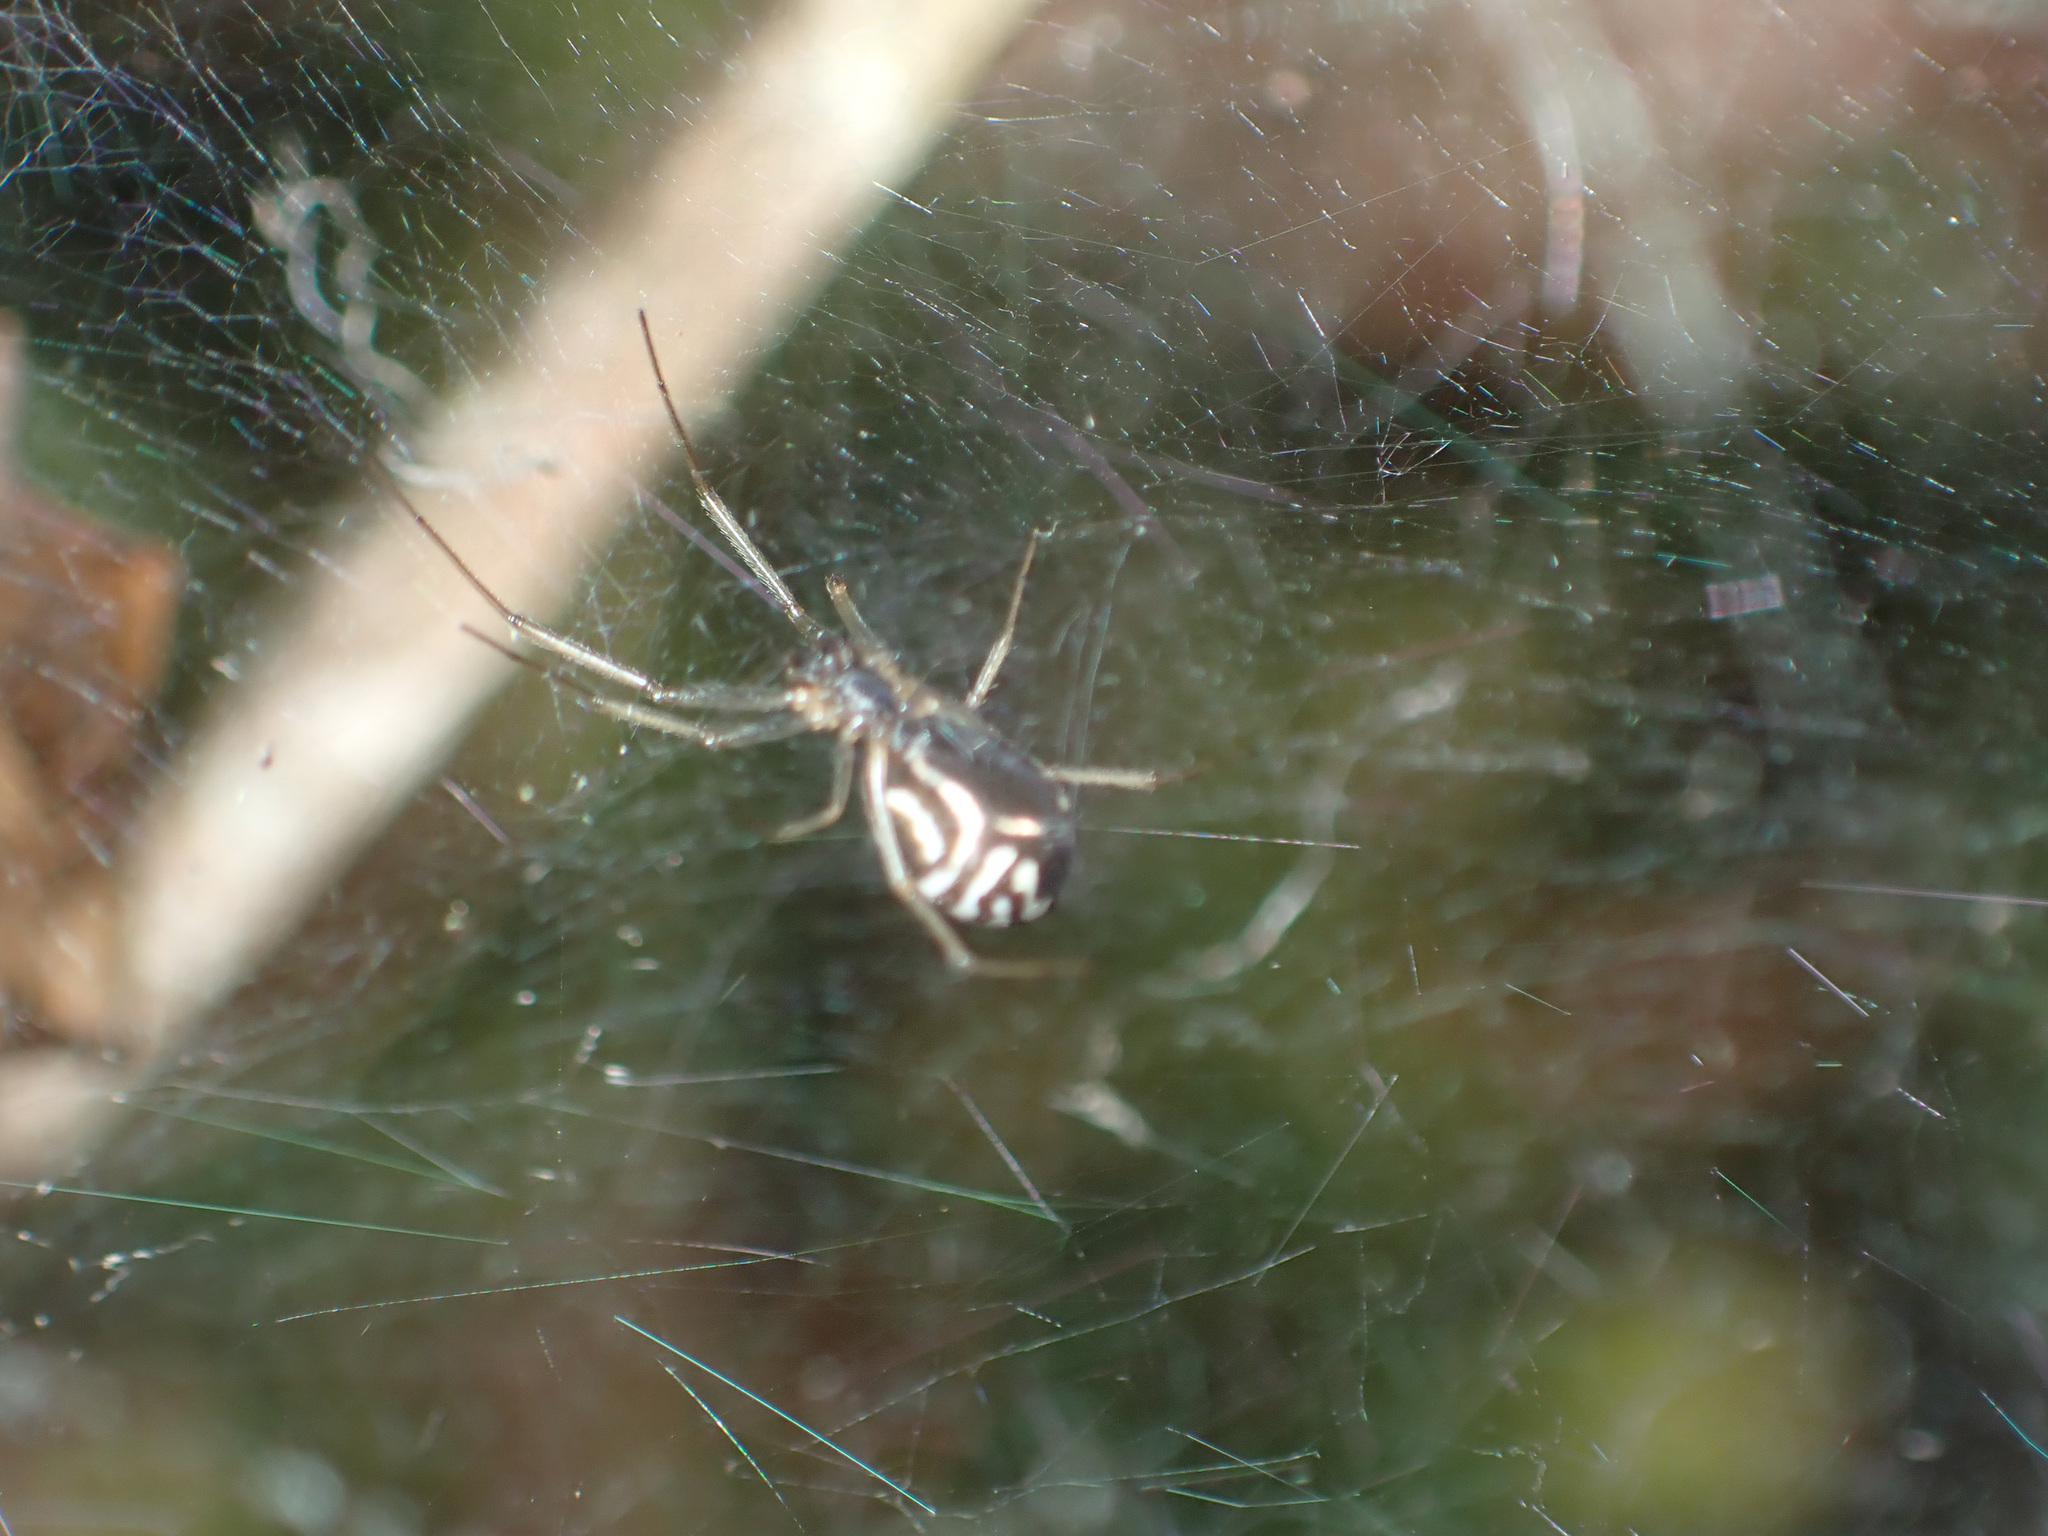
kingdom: Animalia
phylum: Arthropoda
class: Arachnida
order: Araneae
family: Linyphiidae
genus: Frontinella
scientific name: Frontinella pyramitela
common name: Bowl-and-doily spider
